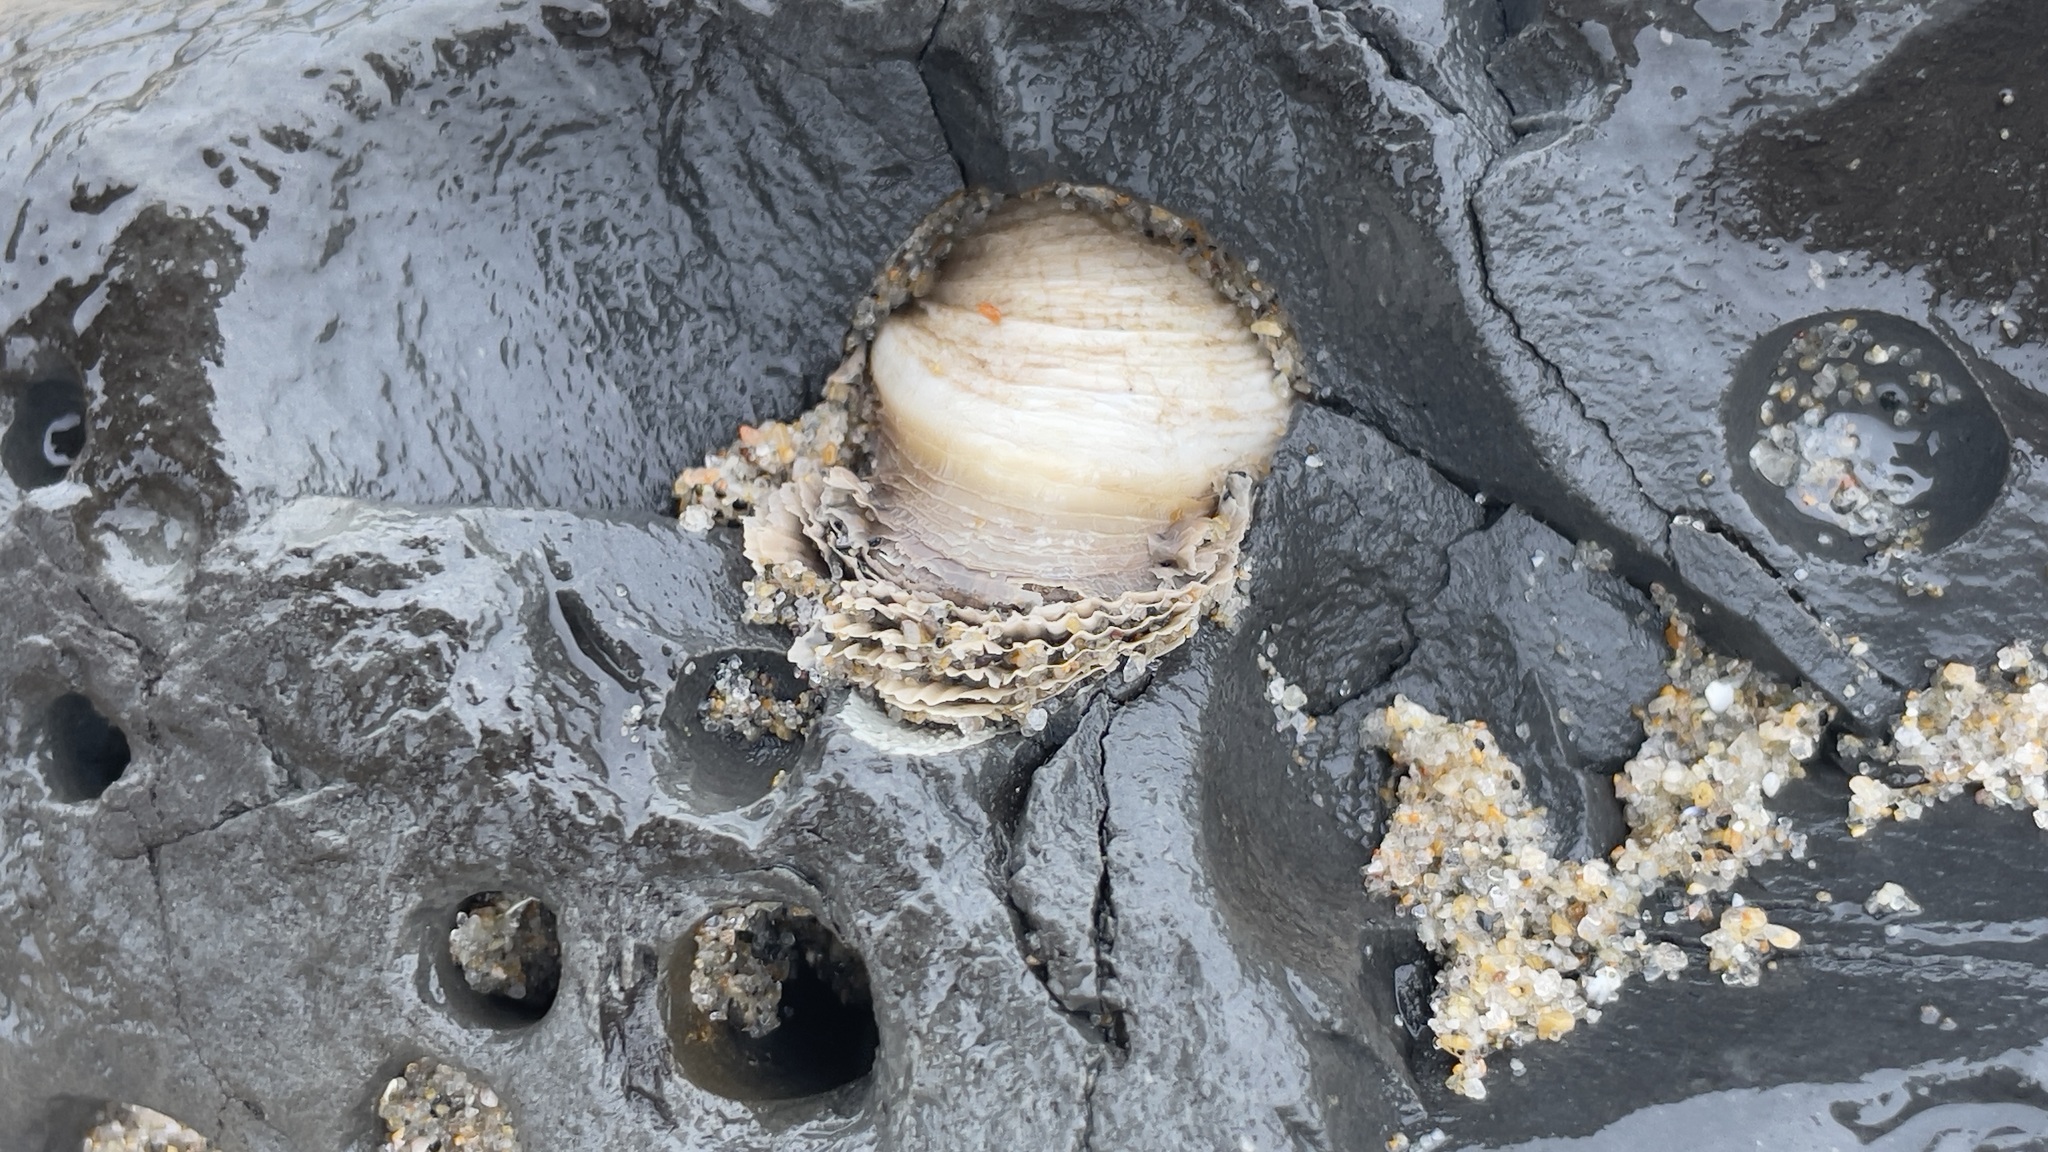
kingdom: Animalia
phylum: Mollusca
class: Bivalvia
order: Myida
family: Pholadidae
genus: Parapholas
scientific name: Parapholas californica
